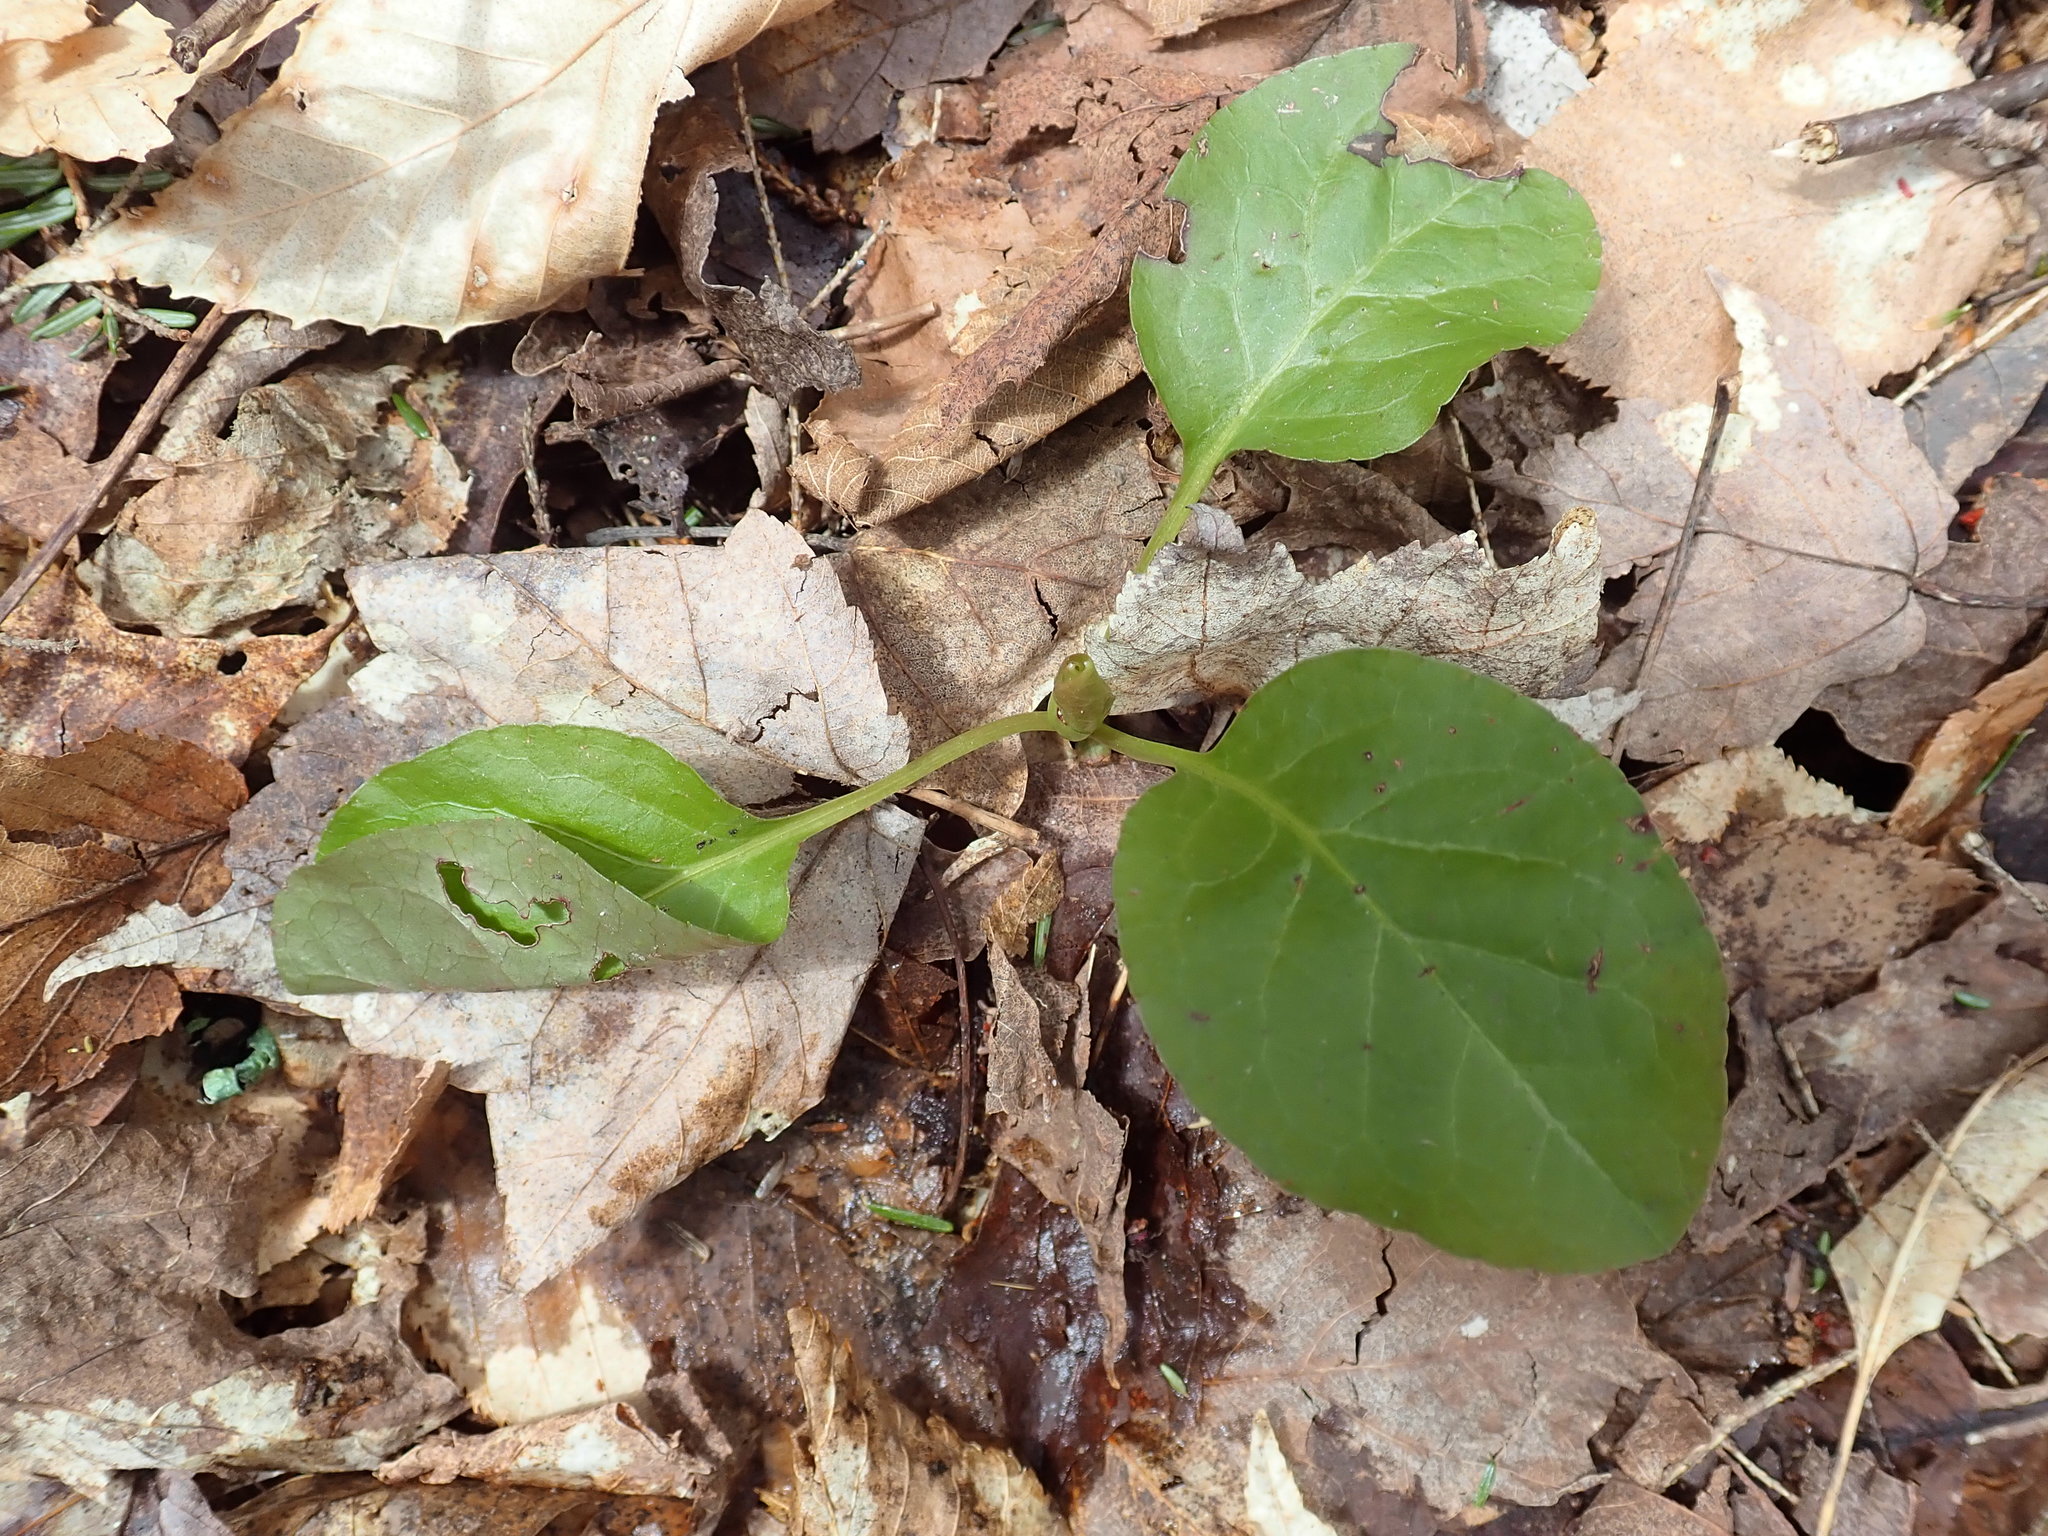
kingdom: Plantae
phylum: Tracheophyta
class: Magnoliopsida
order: Ericales
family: Ericaceae
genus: Pyrola
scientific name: Pyrola elliptica
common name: Shinleaf
